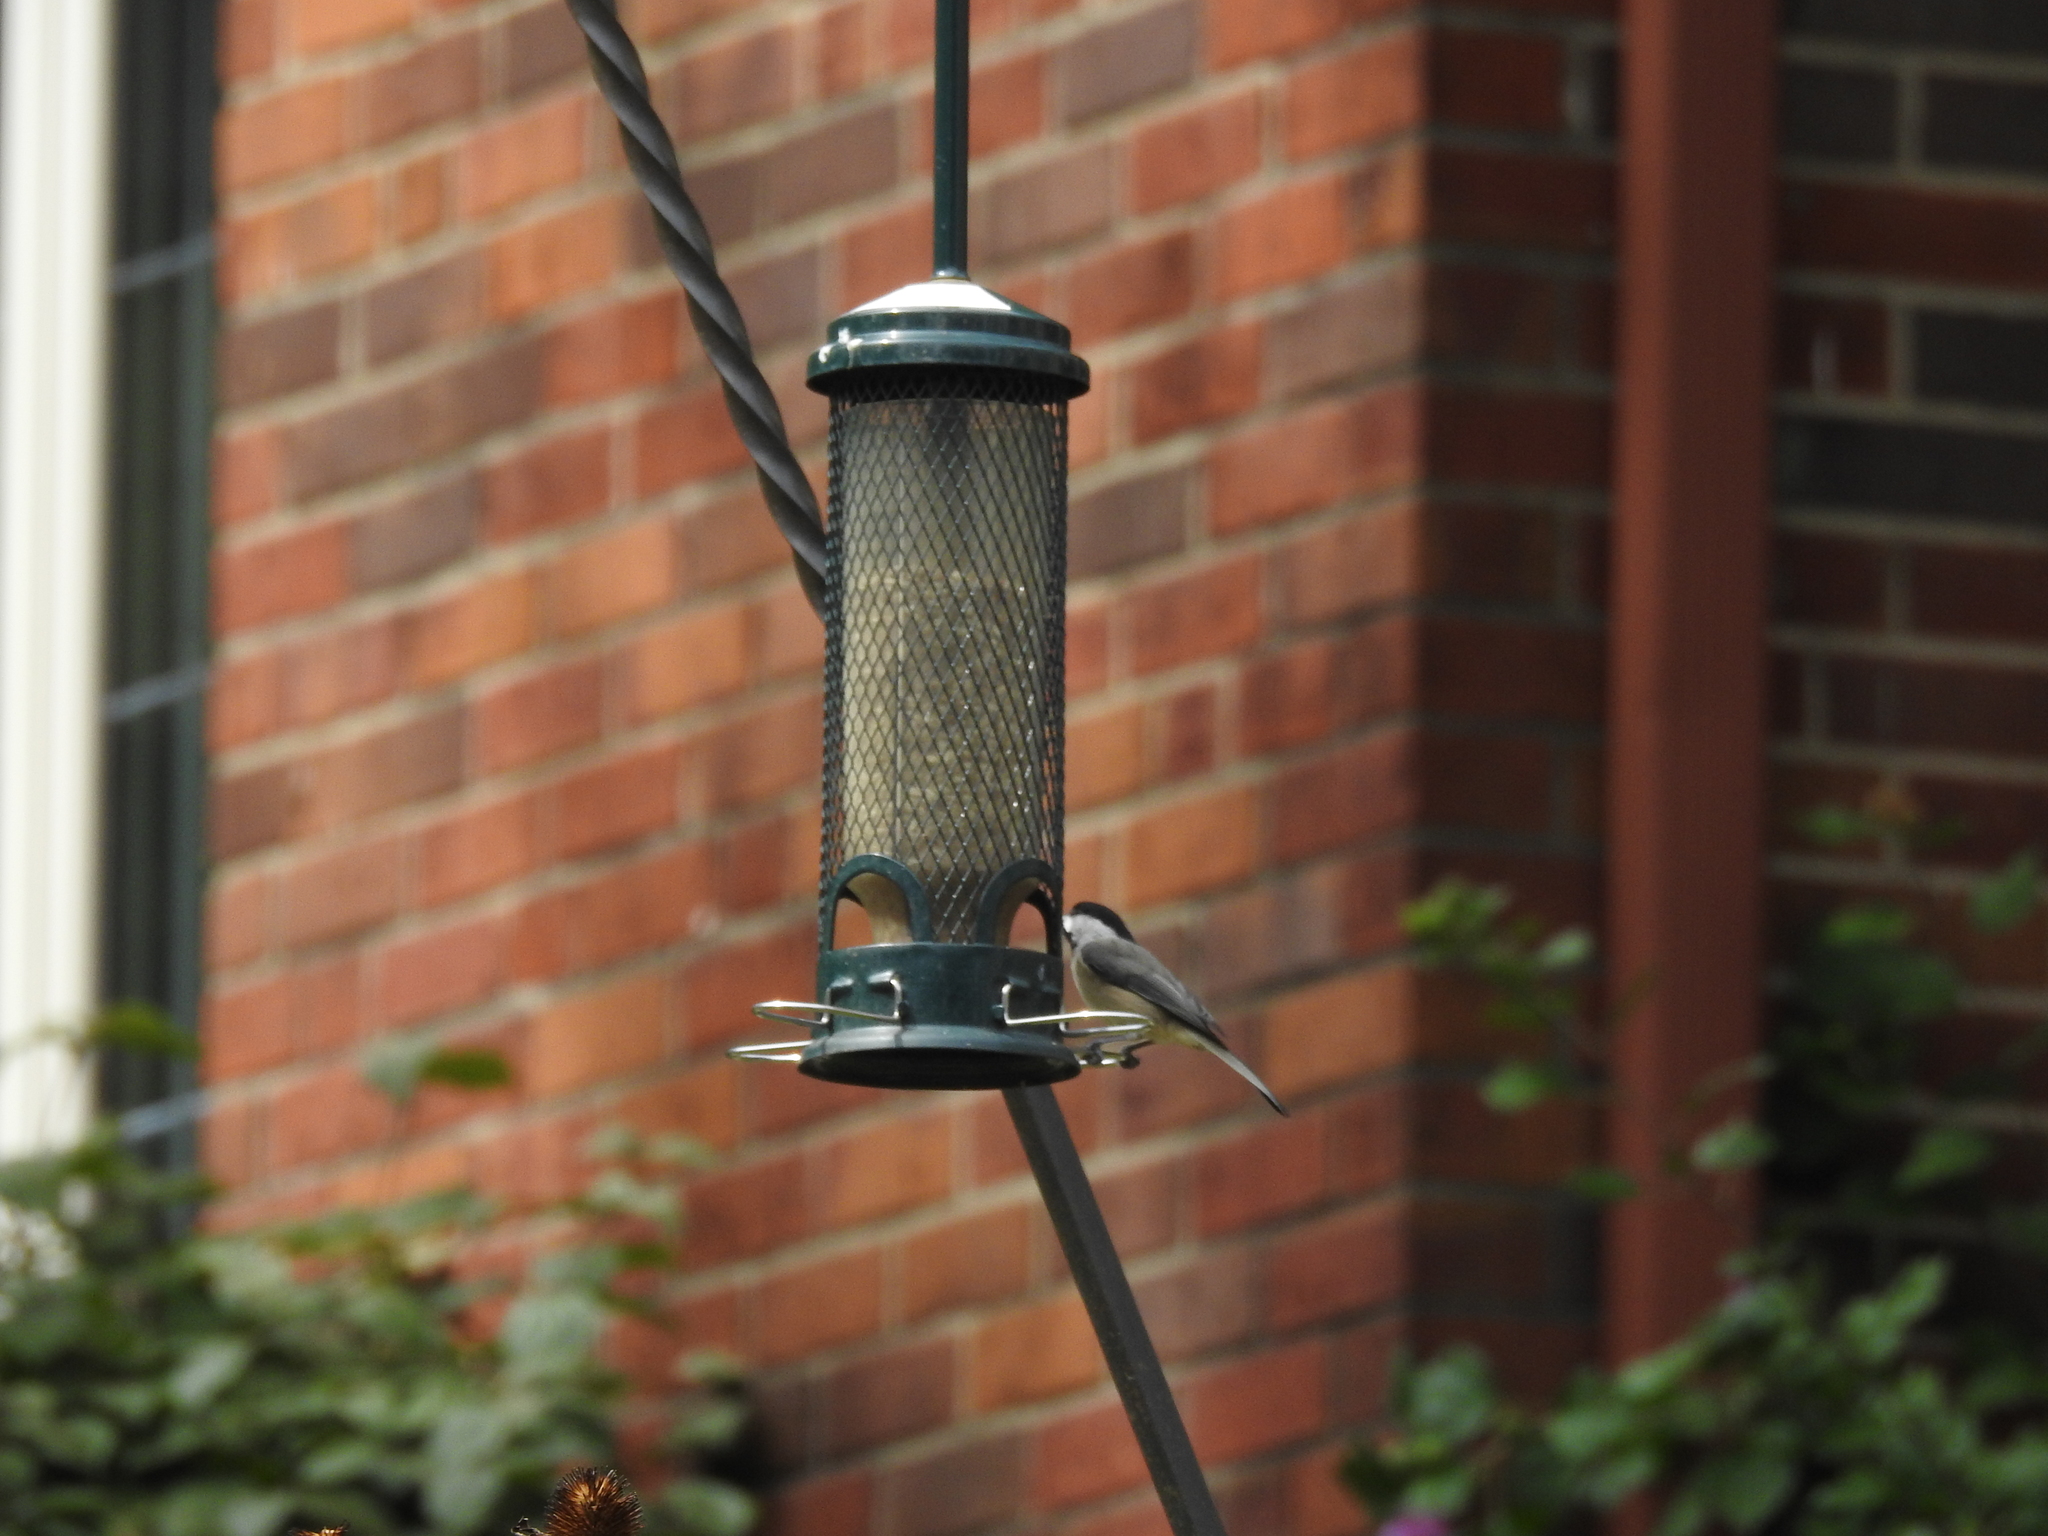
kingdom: Animalia
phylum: Chordata
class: Aves
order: Passeriformes
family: Paridae
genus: Poecile
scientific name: Poecile carolinensis
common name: Carolina chickadee
